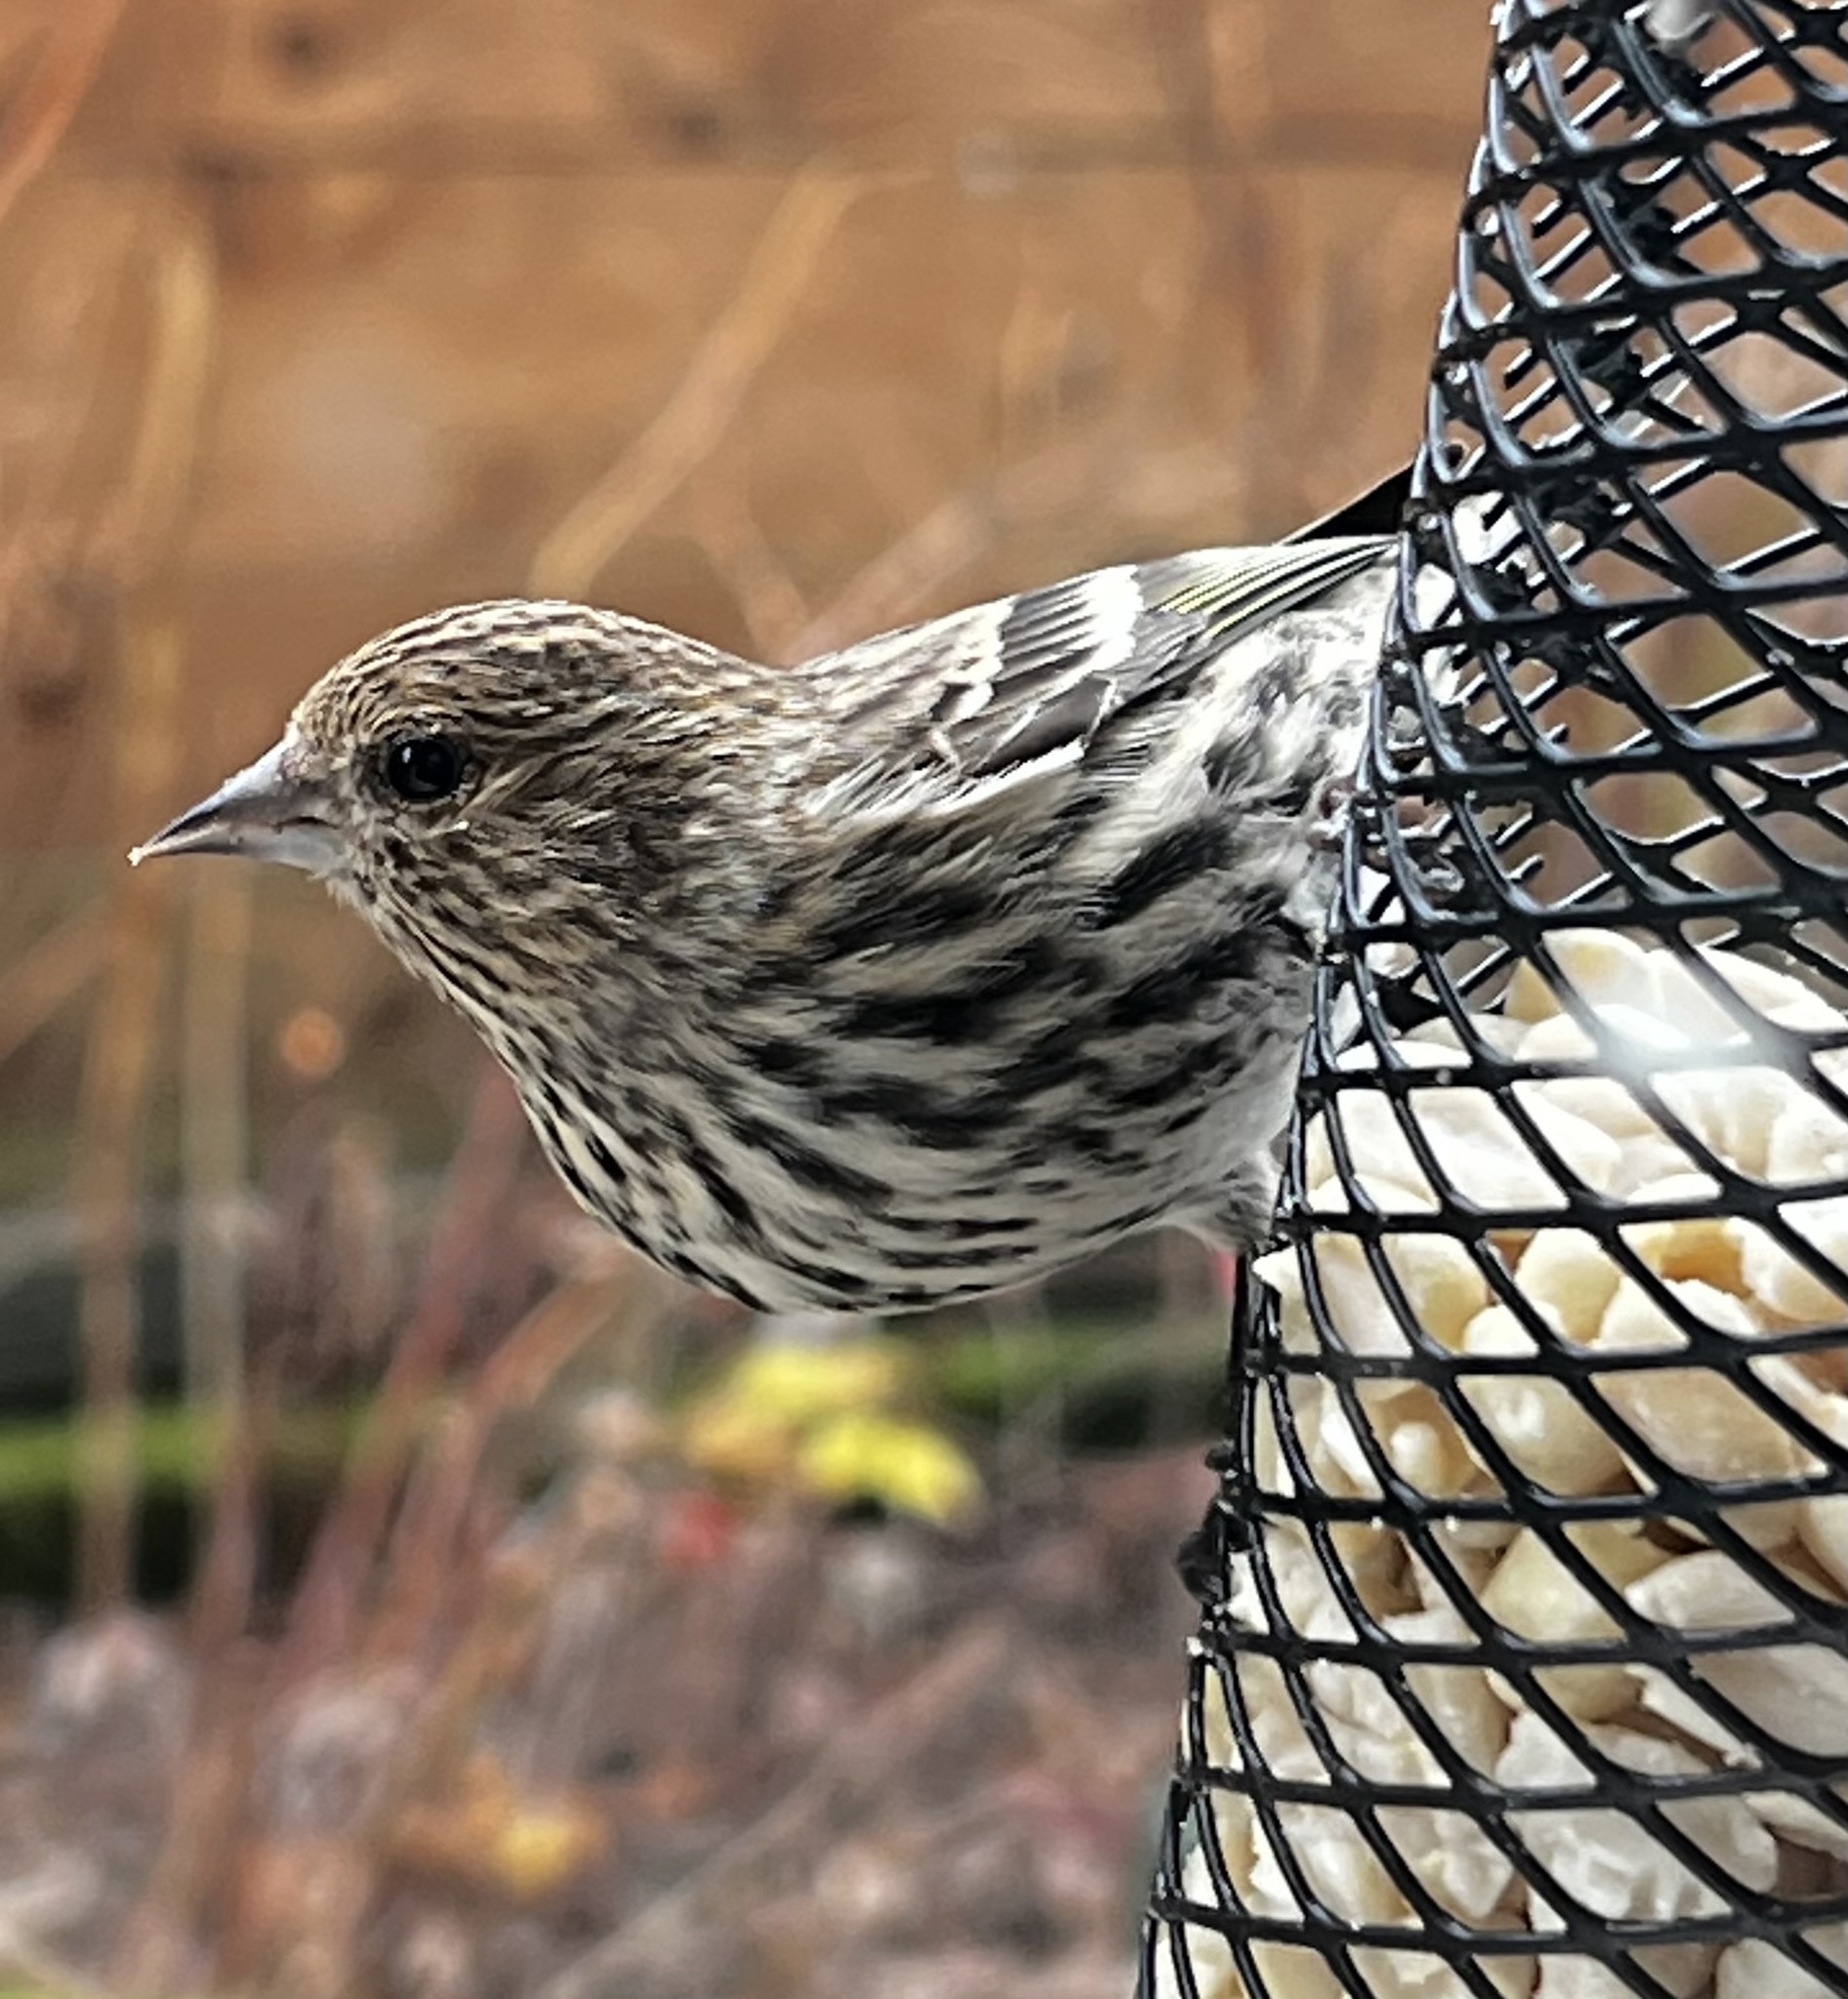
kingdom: Animalia
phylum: Chordata
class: Aves
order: Passeriformes
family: Fringillidae
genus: Spinus
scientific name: Spinus pinus
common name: Pine siskin
